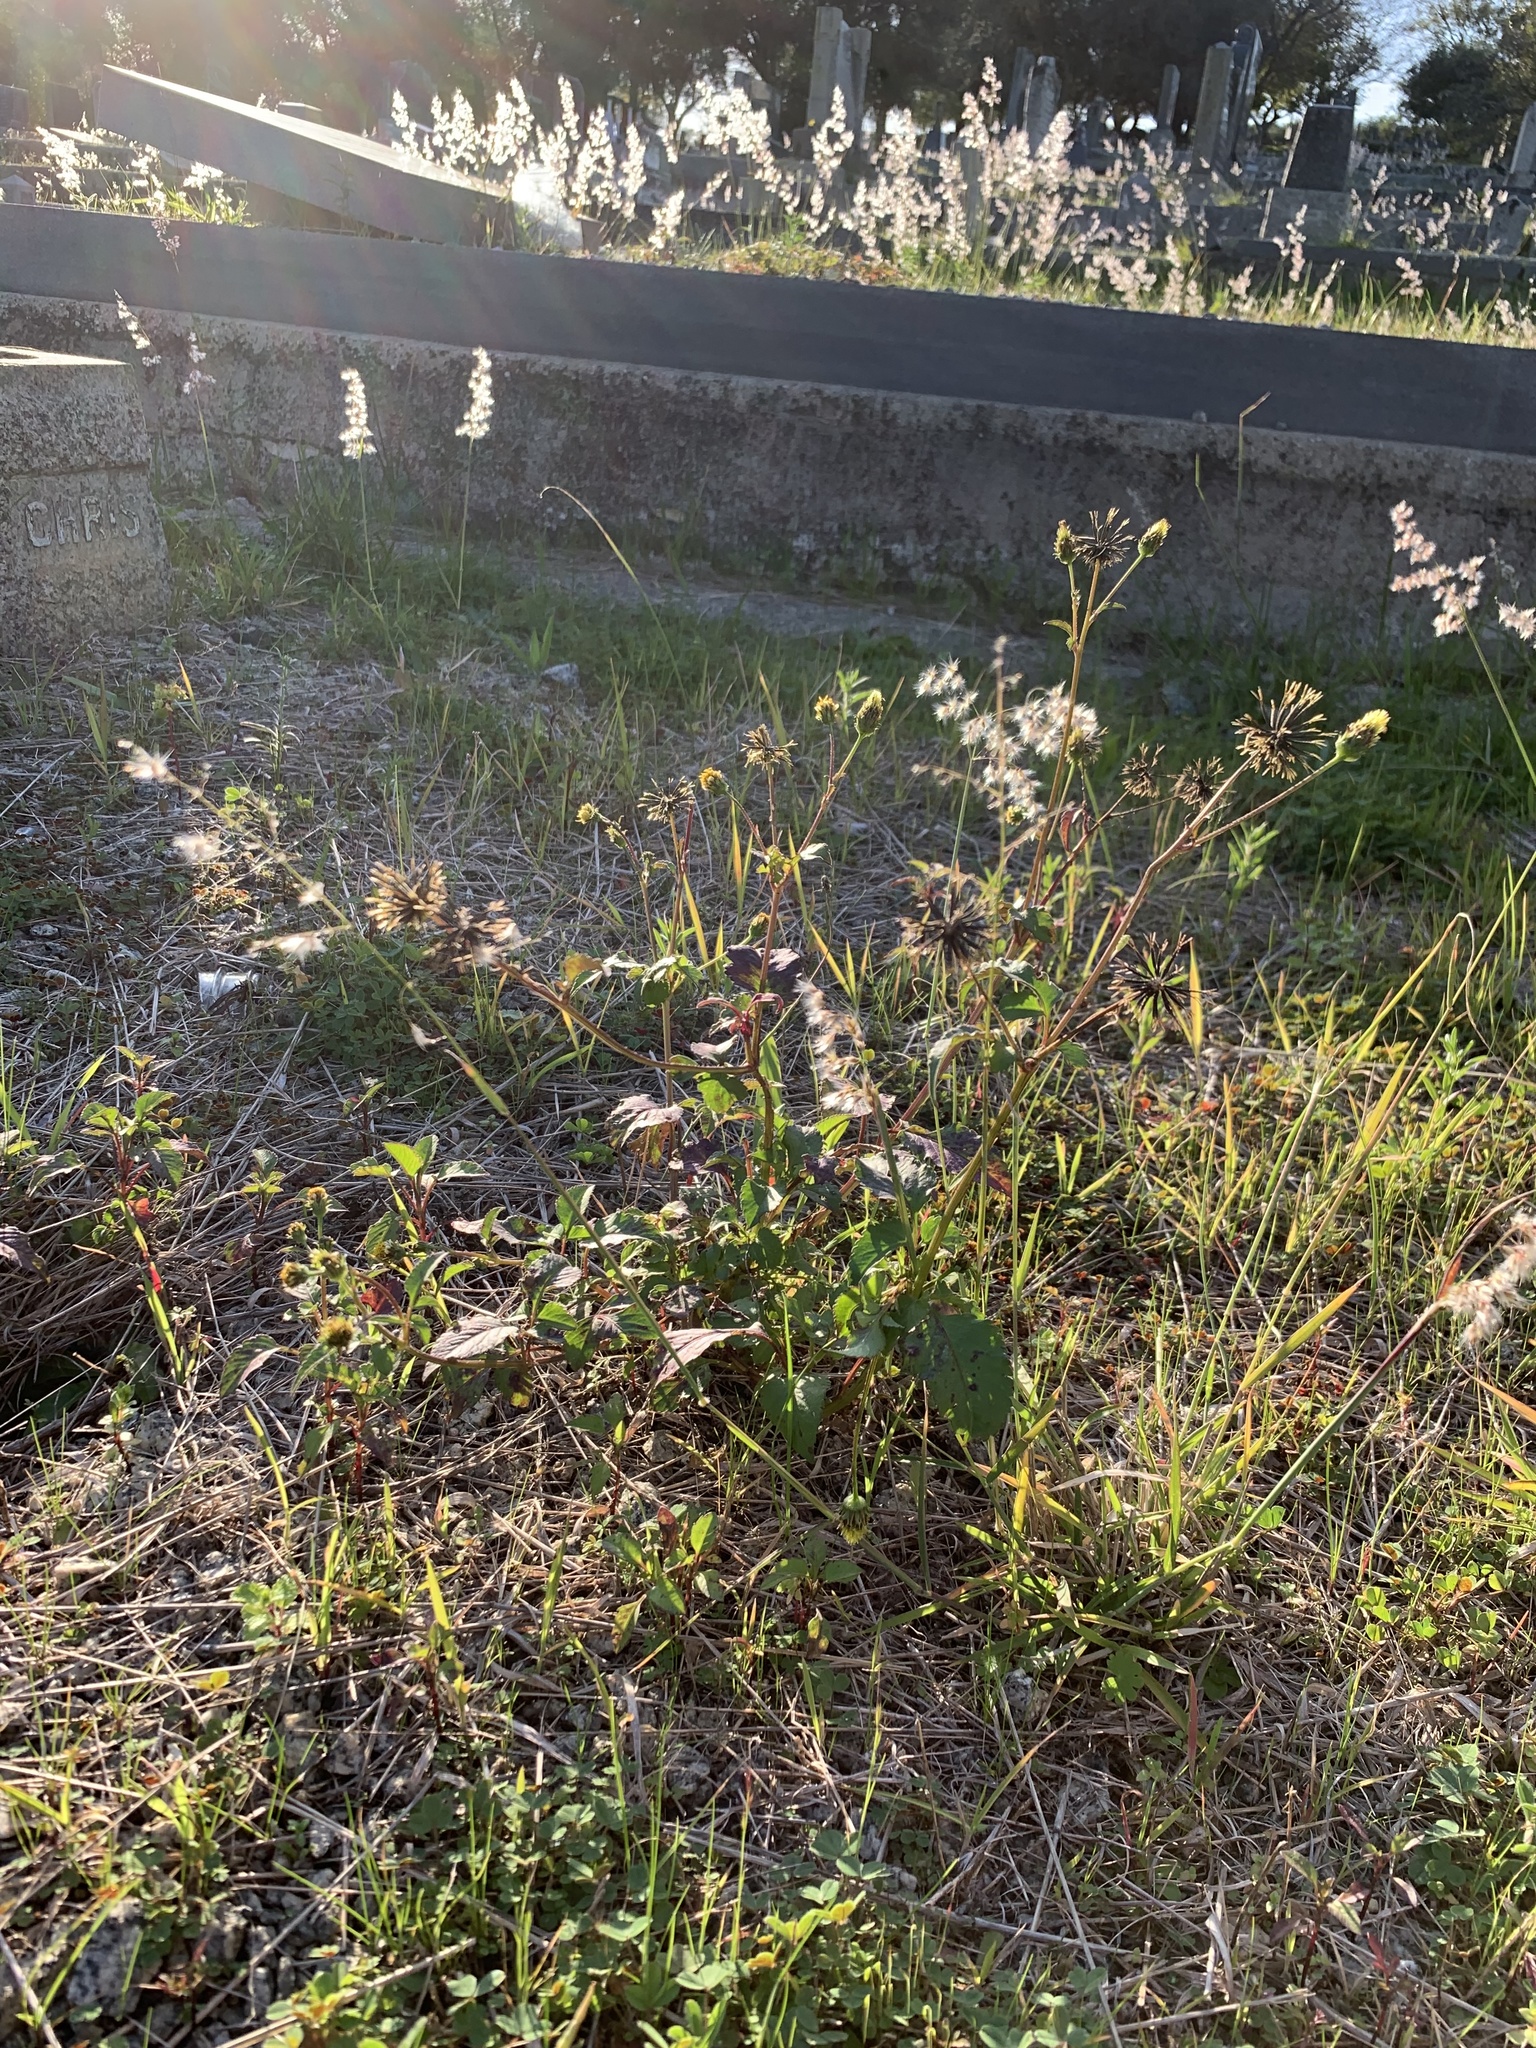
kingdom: Plantae
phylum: Tracheophyta
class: Magnoliopsida
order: Asterales
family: Asteraceae
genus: Bidens
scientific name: Bidens pilosa
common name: Black-jack
